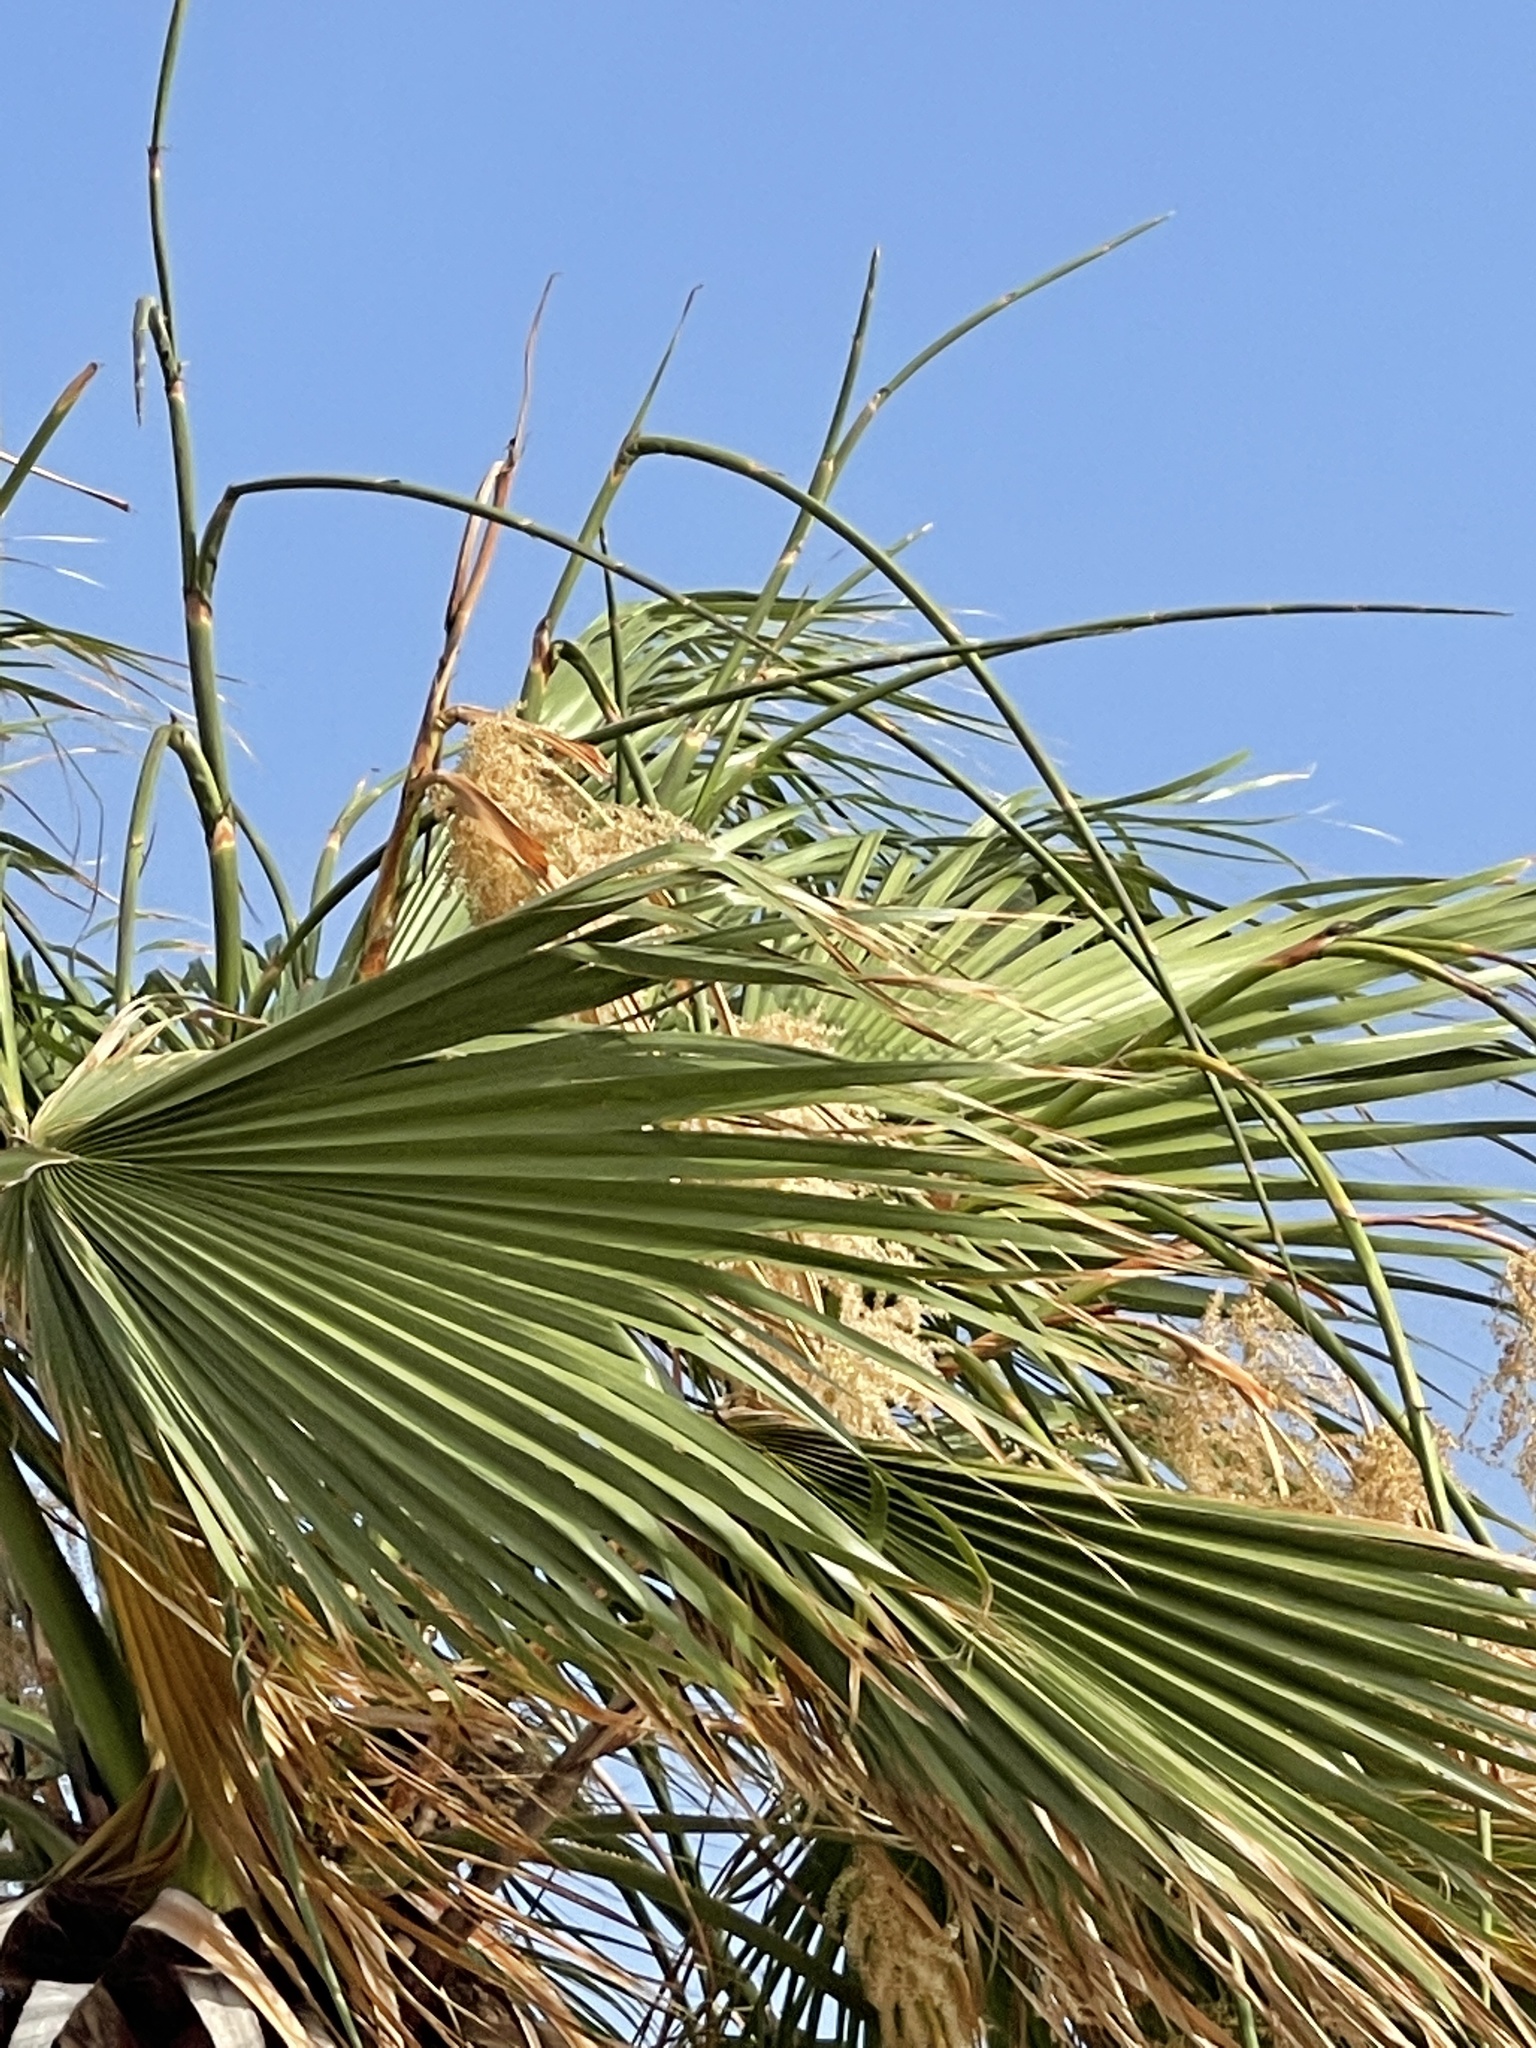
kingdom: Plantae
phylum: Tracheophyta
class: Liliopsida
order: Arecales
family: Arecaceae
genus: Washingtonia
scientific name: Washingtonia filifera
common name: California fan palm
